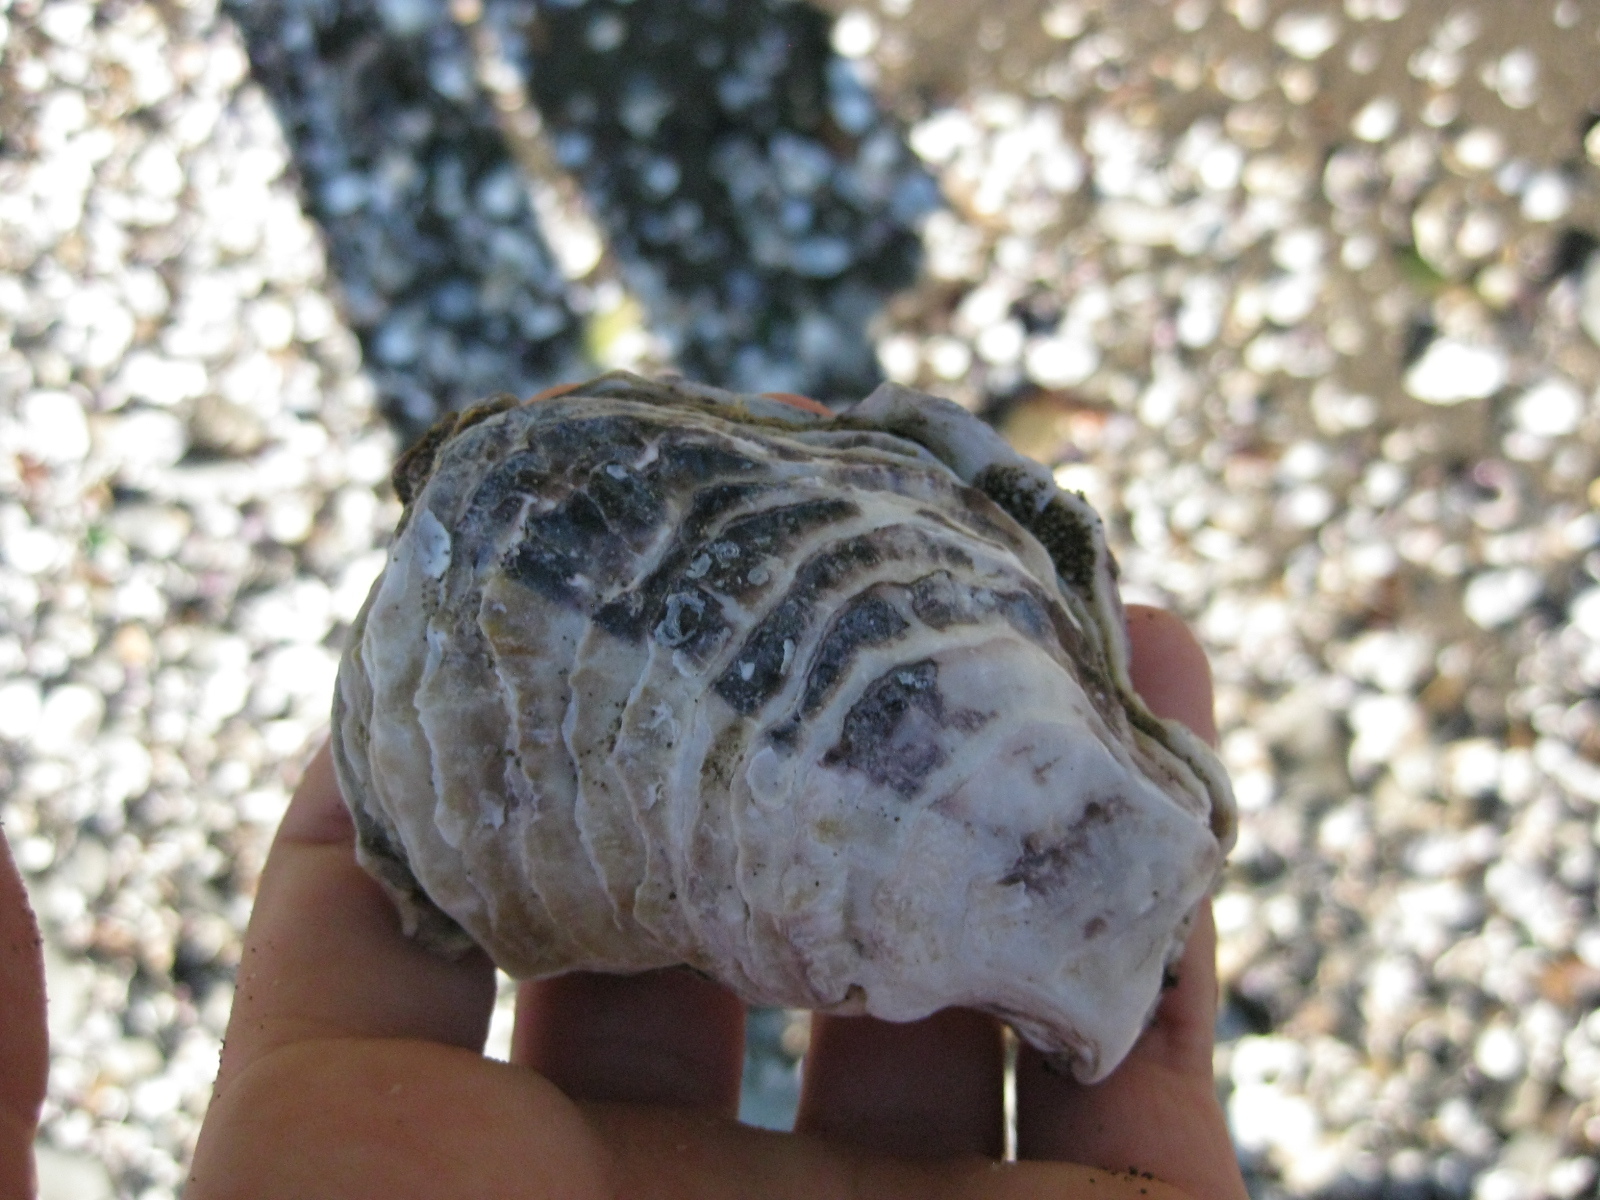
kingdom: Animalia
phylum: Mollusca
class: Bivalvia
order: Ostreida
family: Ostreidae
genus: Magallana
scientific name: Magallana gigas
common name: Pacific oyster
